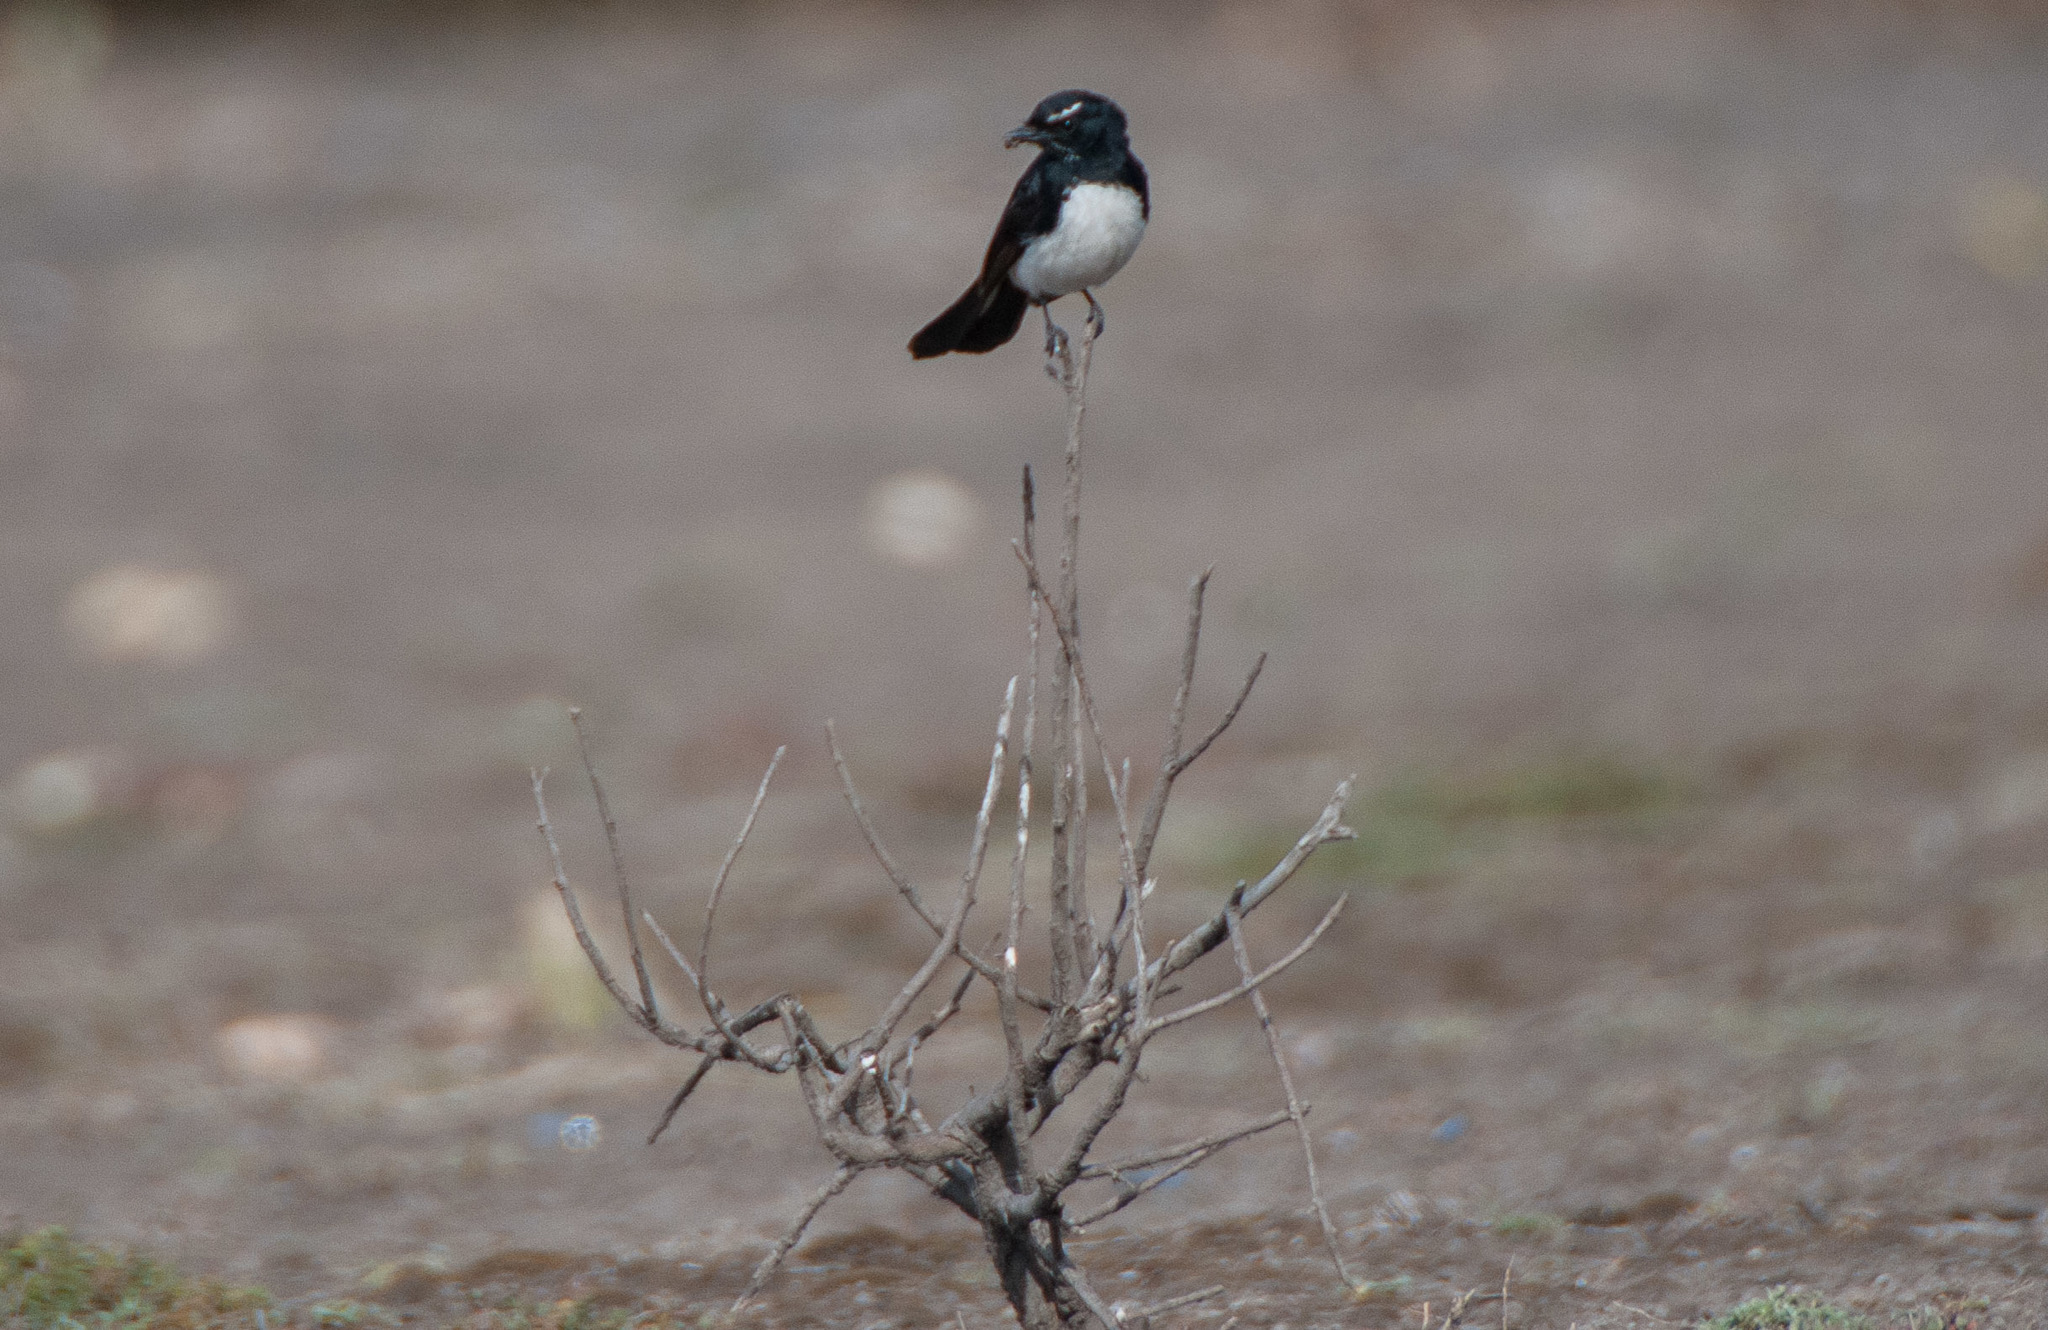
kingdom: Animalia
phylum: Chordata
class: Aves
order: Passeriformes
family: Rhipiduridae
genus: Rhipidura
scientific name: Rhipidura leucophrys
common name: Willie wagtail
